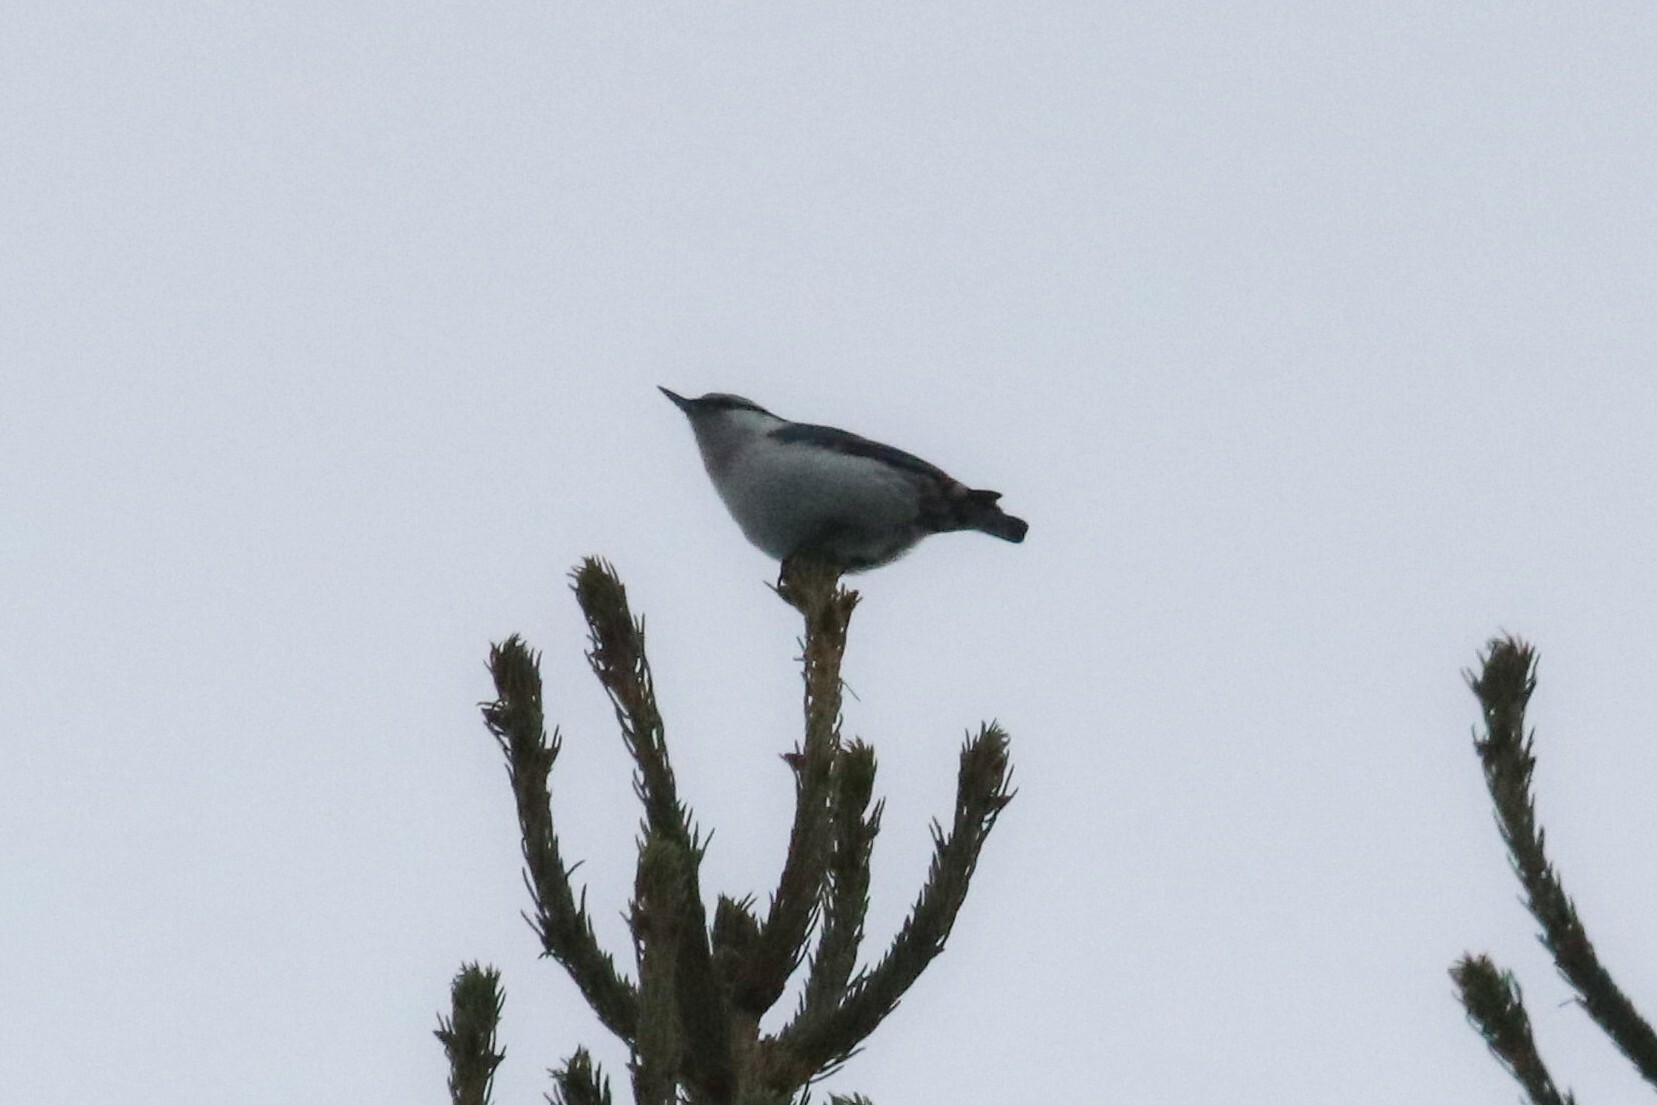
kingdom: Animalia
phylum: Chordata
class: Aves
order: Passeriformes
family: Sittidae
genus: Sitta
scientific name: Sitta europaea
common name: Eurasian nuthatch
